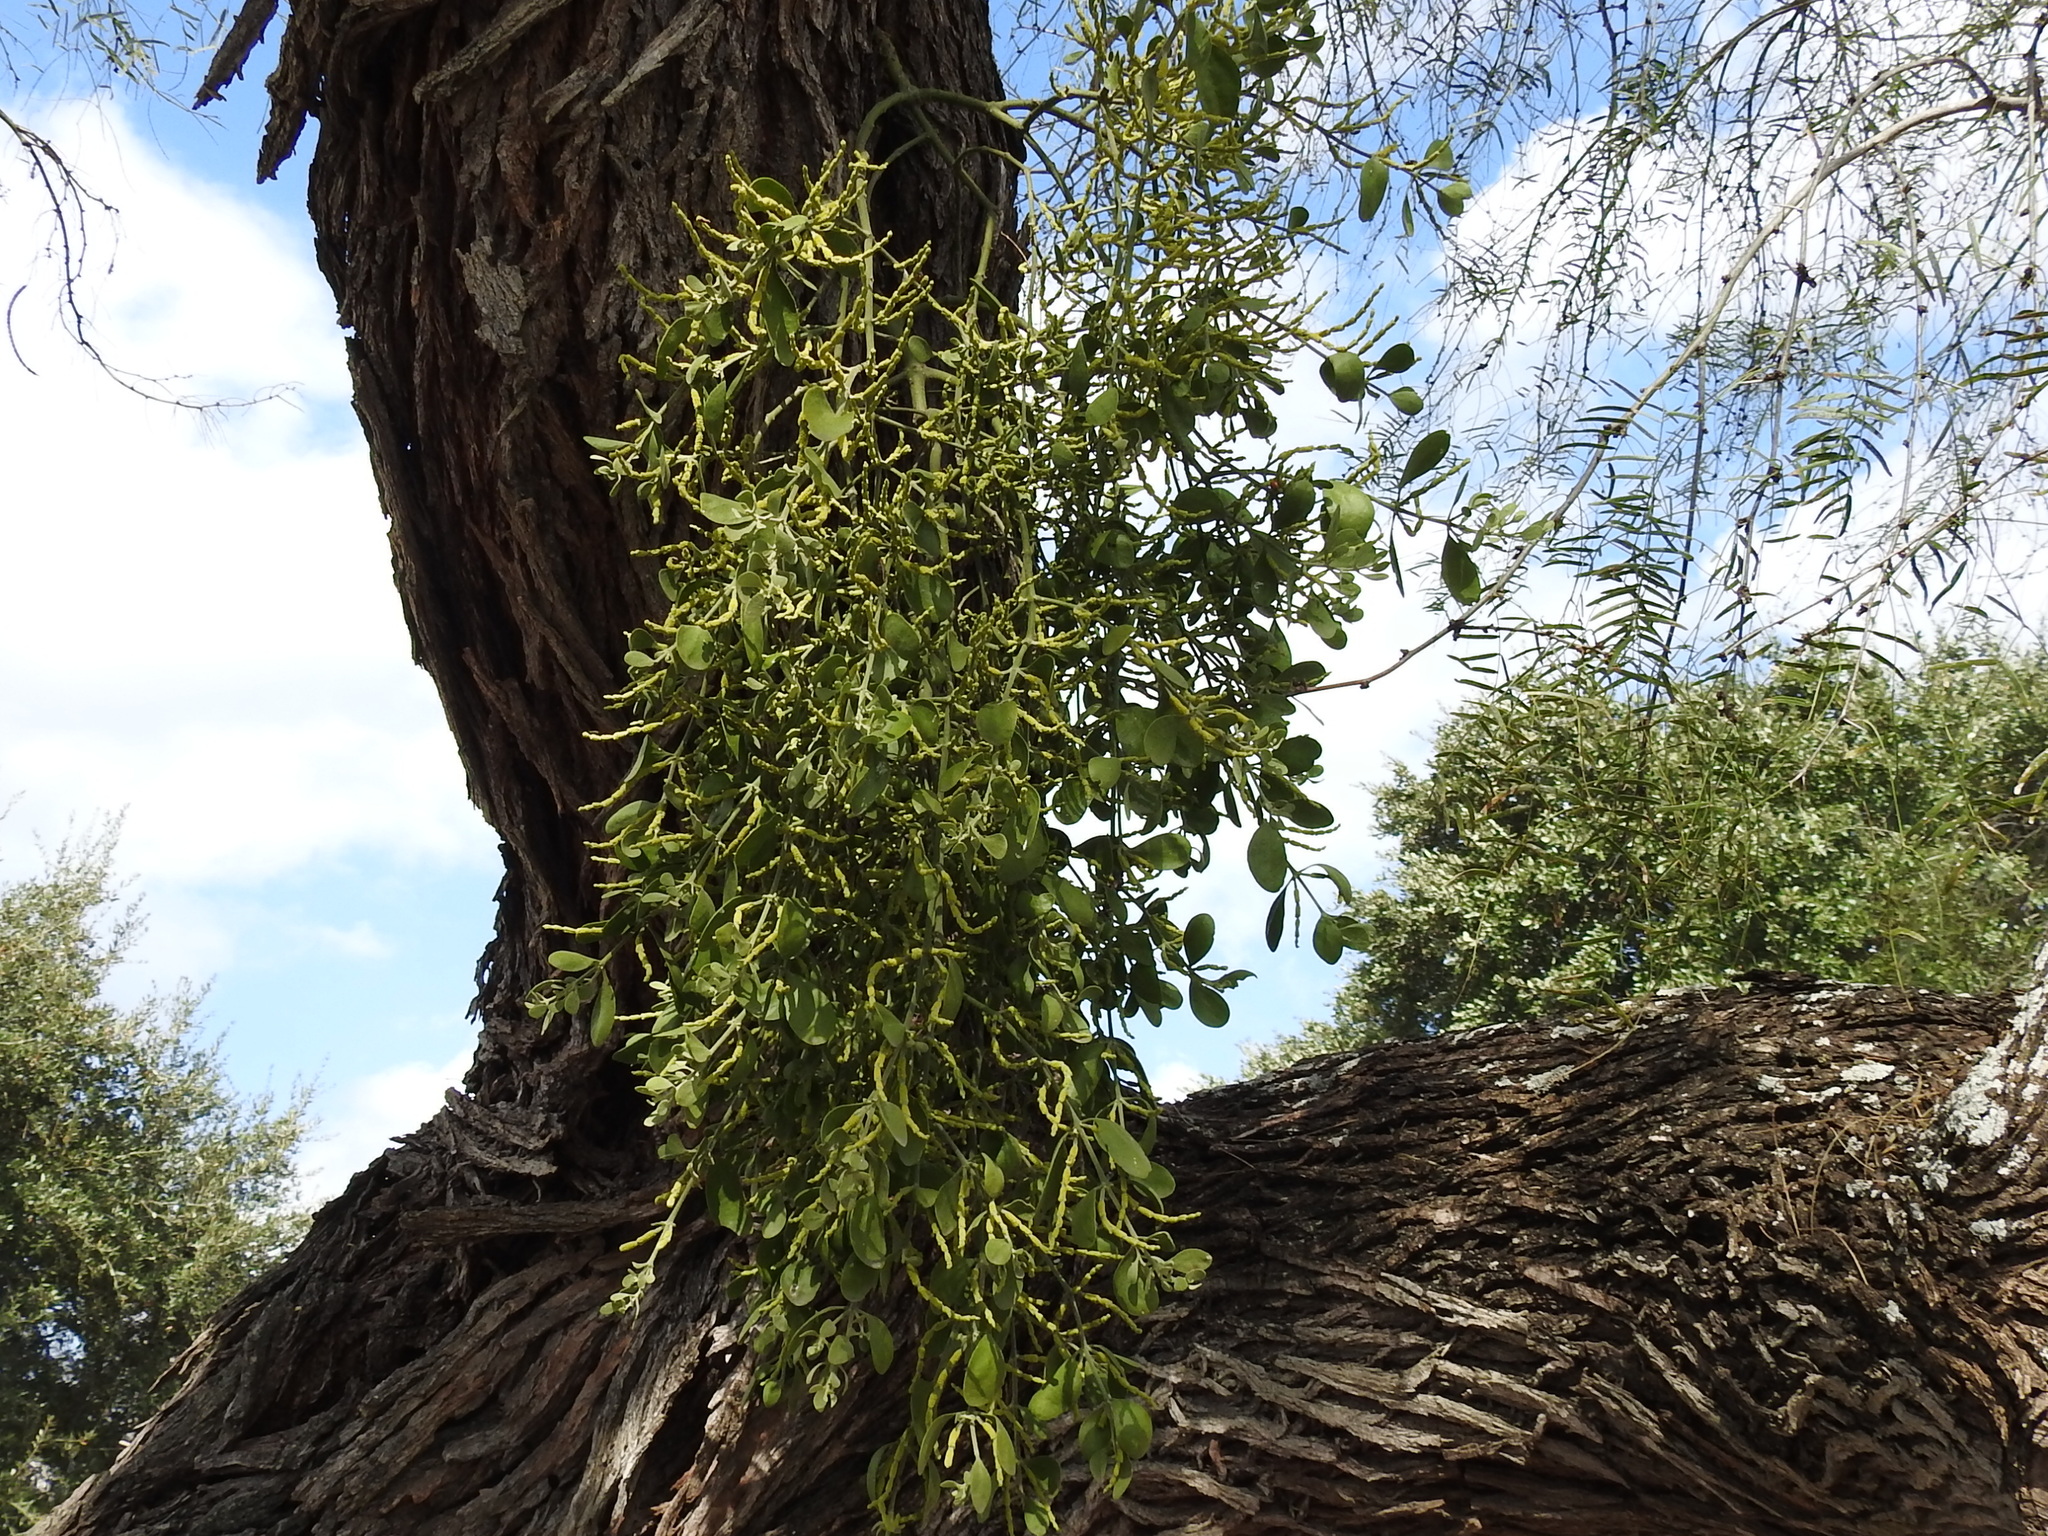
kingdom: Plantae
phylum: Tracheophyta
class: Magnoliopsida
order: Santalales
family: Viscaceae
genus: Phoradendron
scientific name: Phoradendron leucarpum
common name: Pacific mistletoe
